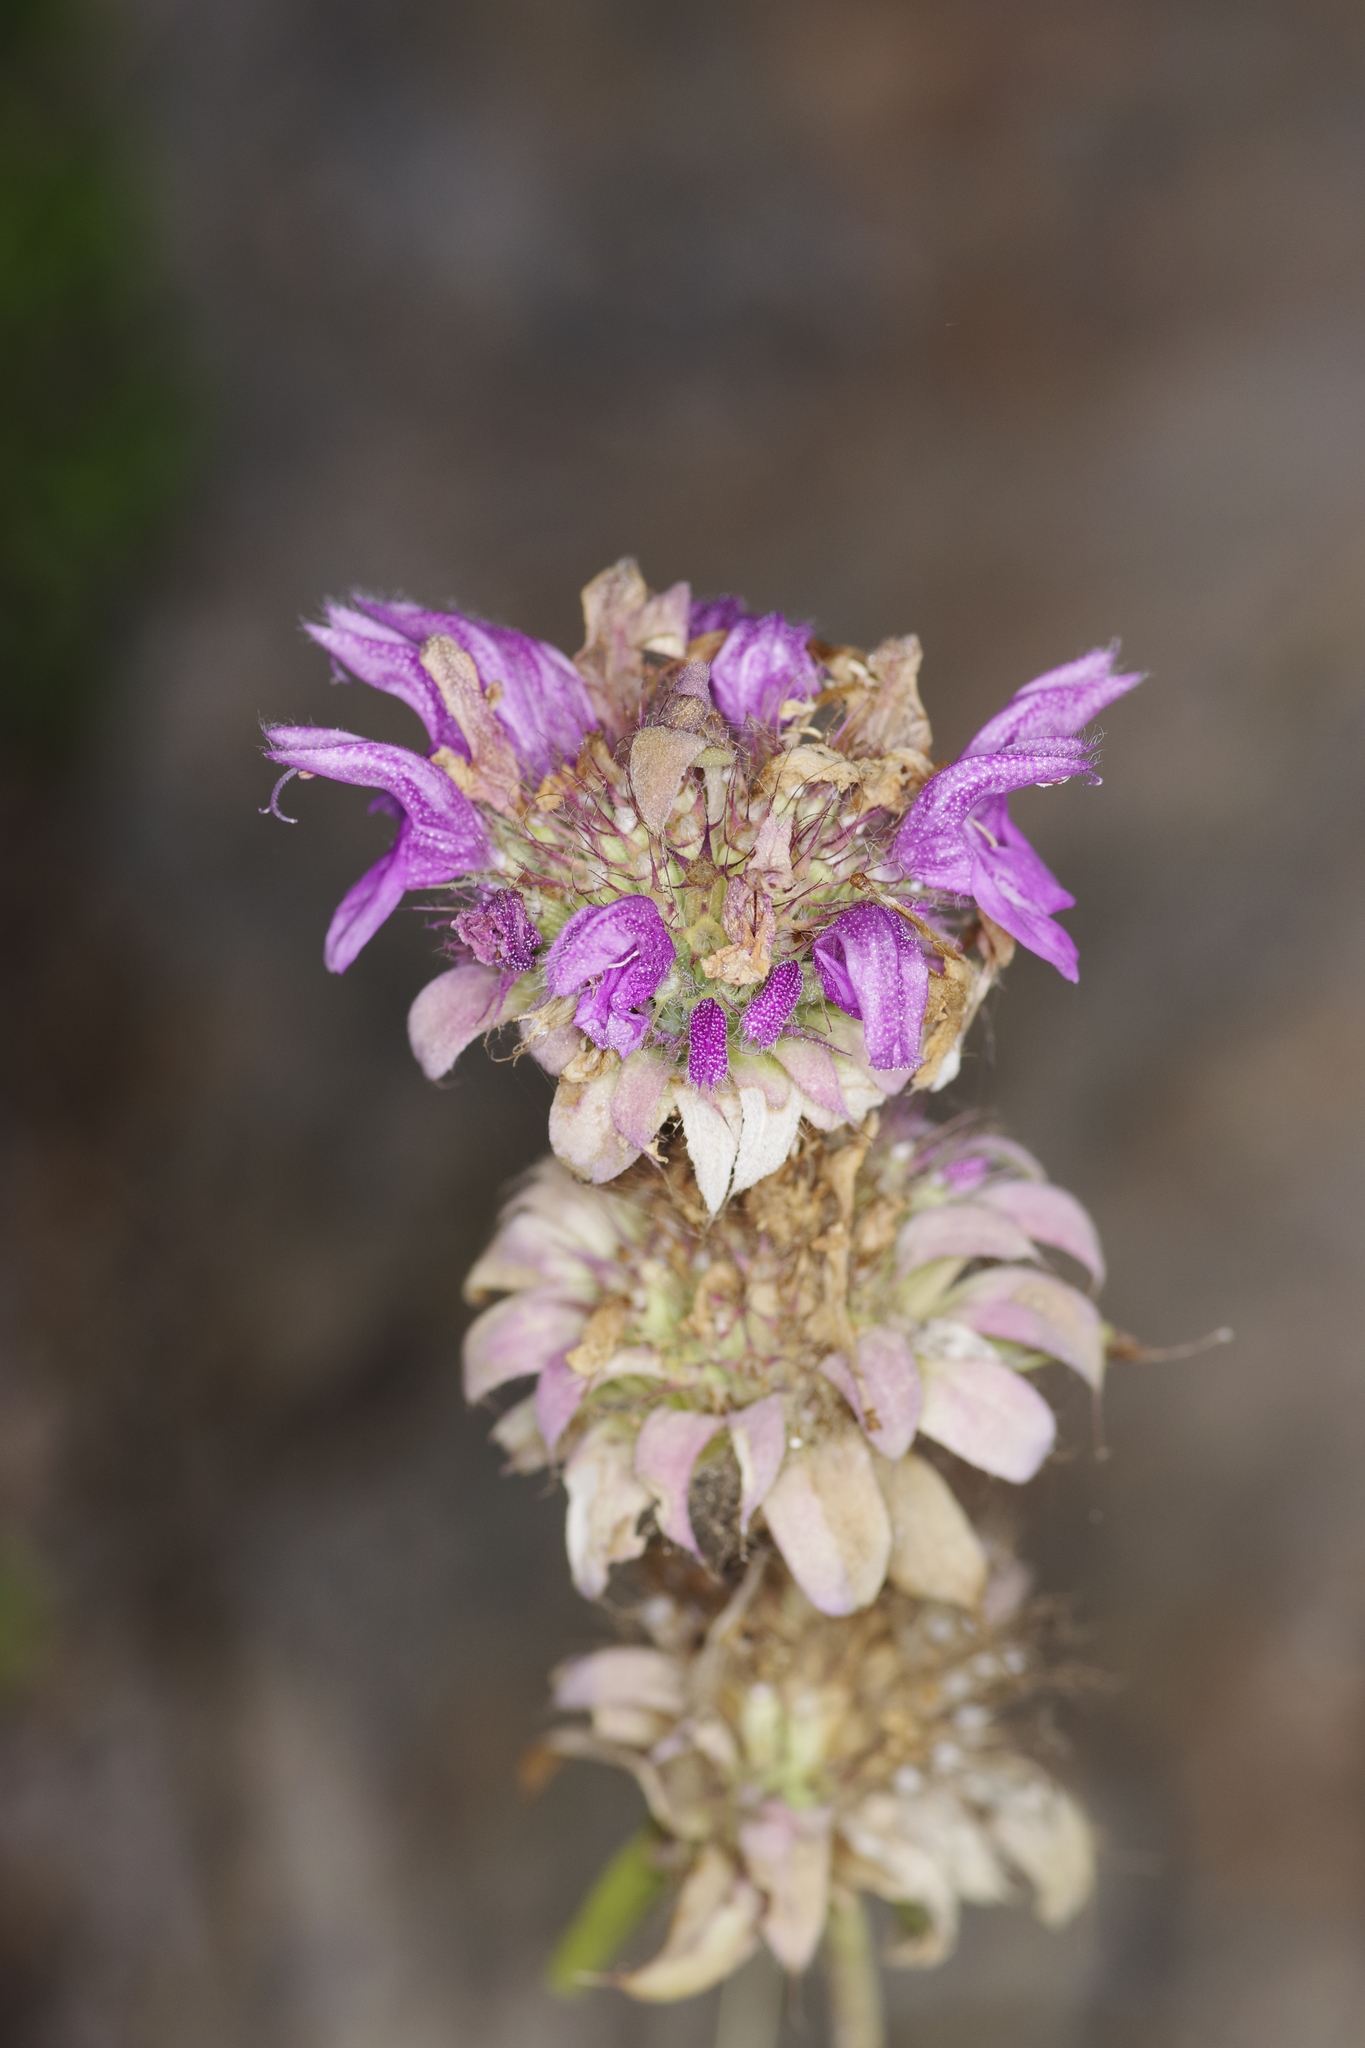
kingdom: Plantae
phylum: Tracheophyta
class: Magnoliopsida
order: Lamiales
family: Lamiaceae
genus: Monarda
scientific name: Monarda citriodora
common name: Lemon beebalm
